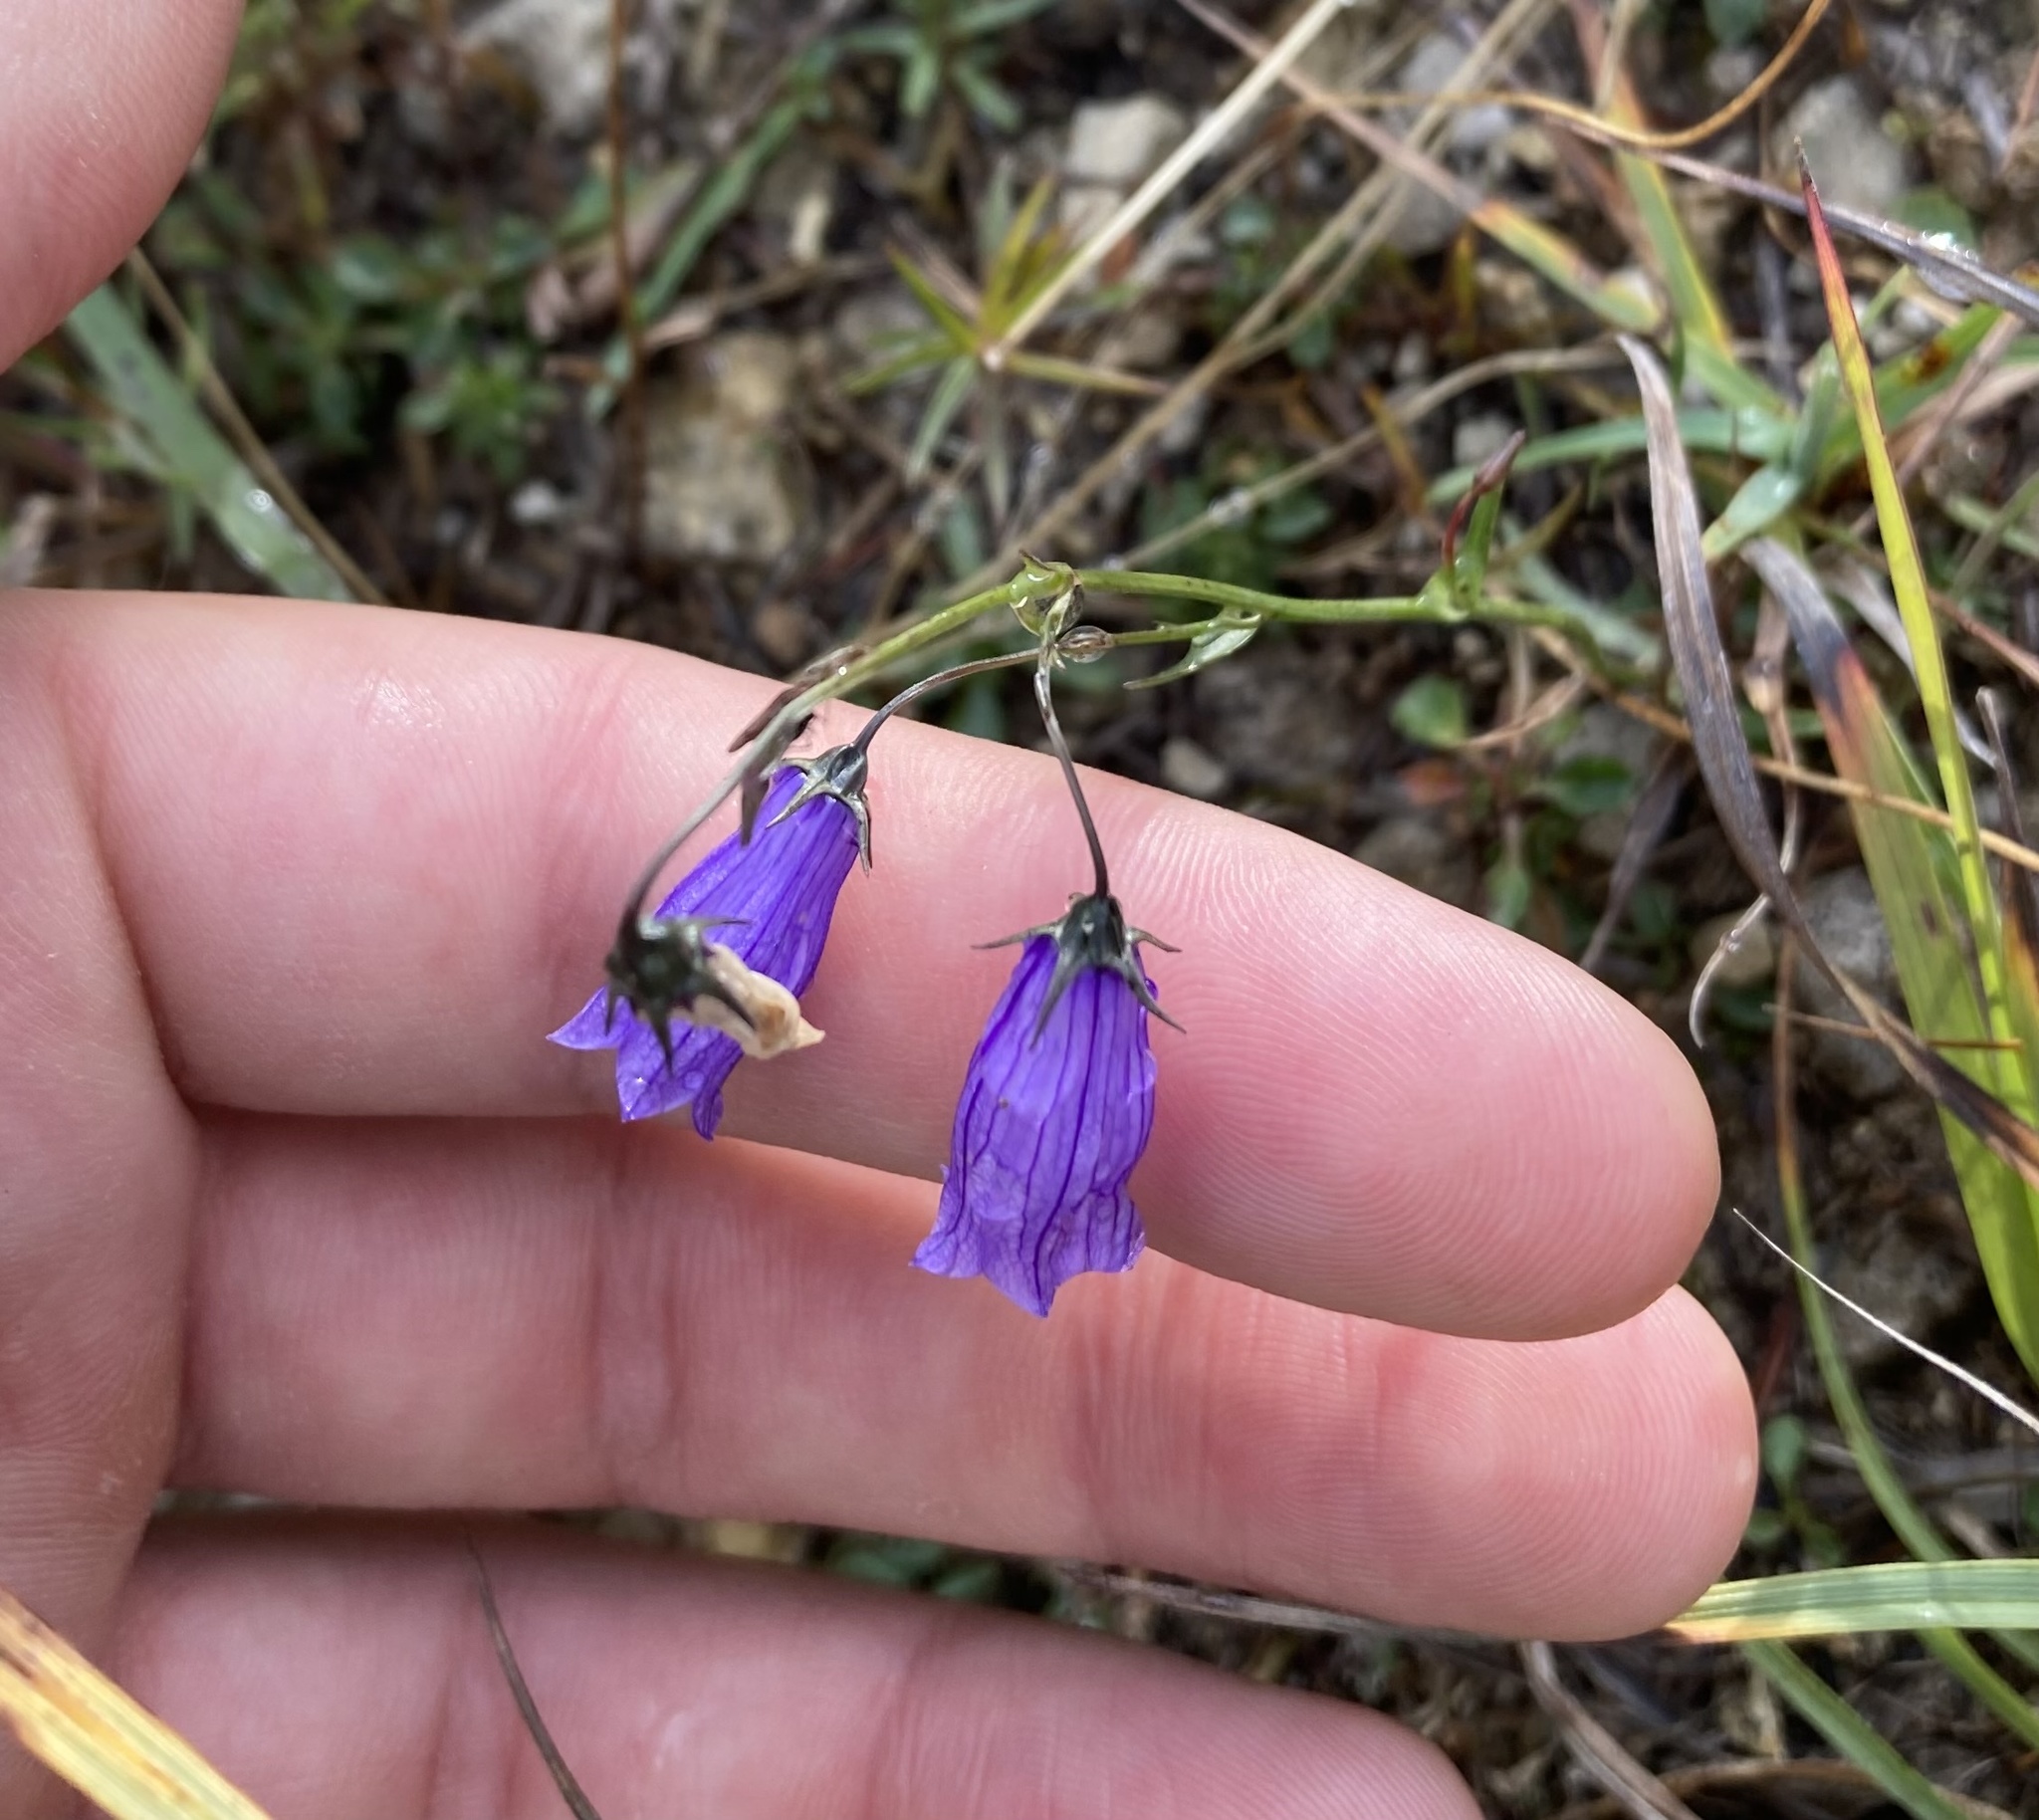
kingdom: Plantae
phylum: Tracheophyta
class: Magnoliopsida
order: Asterales
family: Campanulaceae
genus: Campanula
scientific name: Campanula cespitosa
